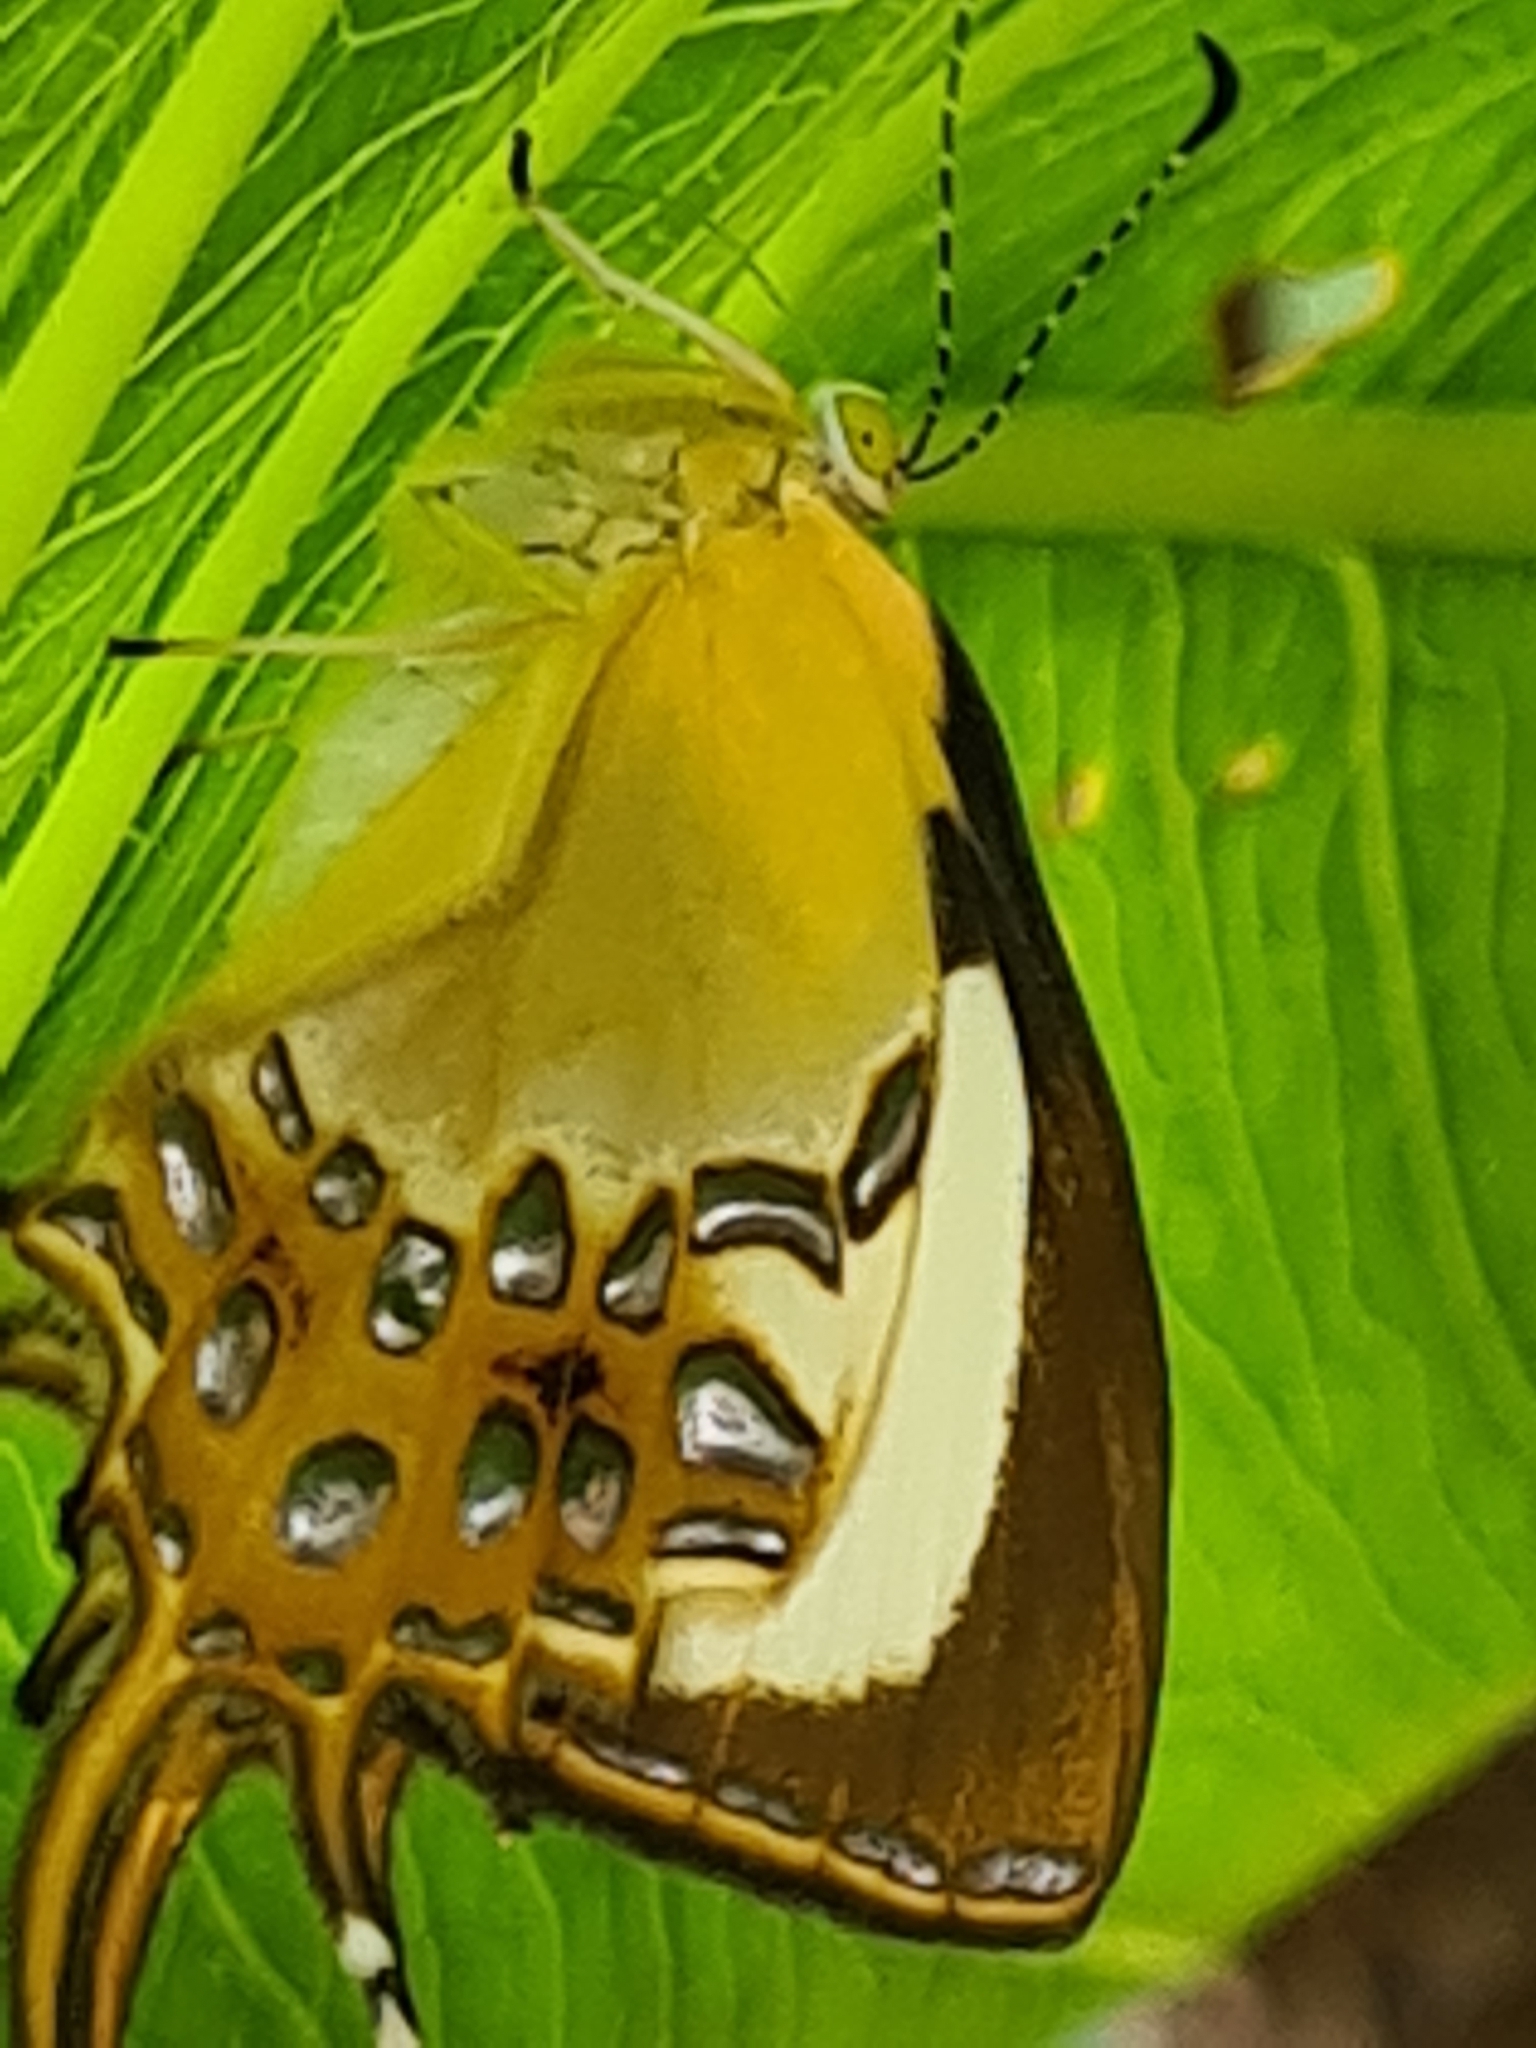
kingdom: Animalia
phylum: Arthropoda
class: Insecta
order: Lepidoptera
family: Riodinidae
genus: Helicopis
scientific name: Helicopis cupido
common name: Spangled cupid
